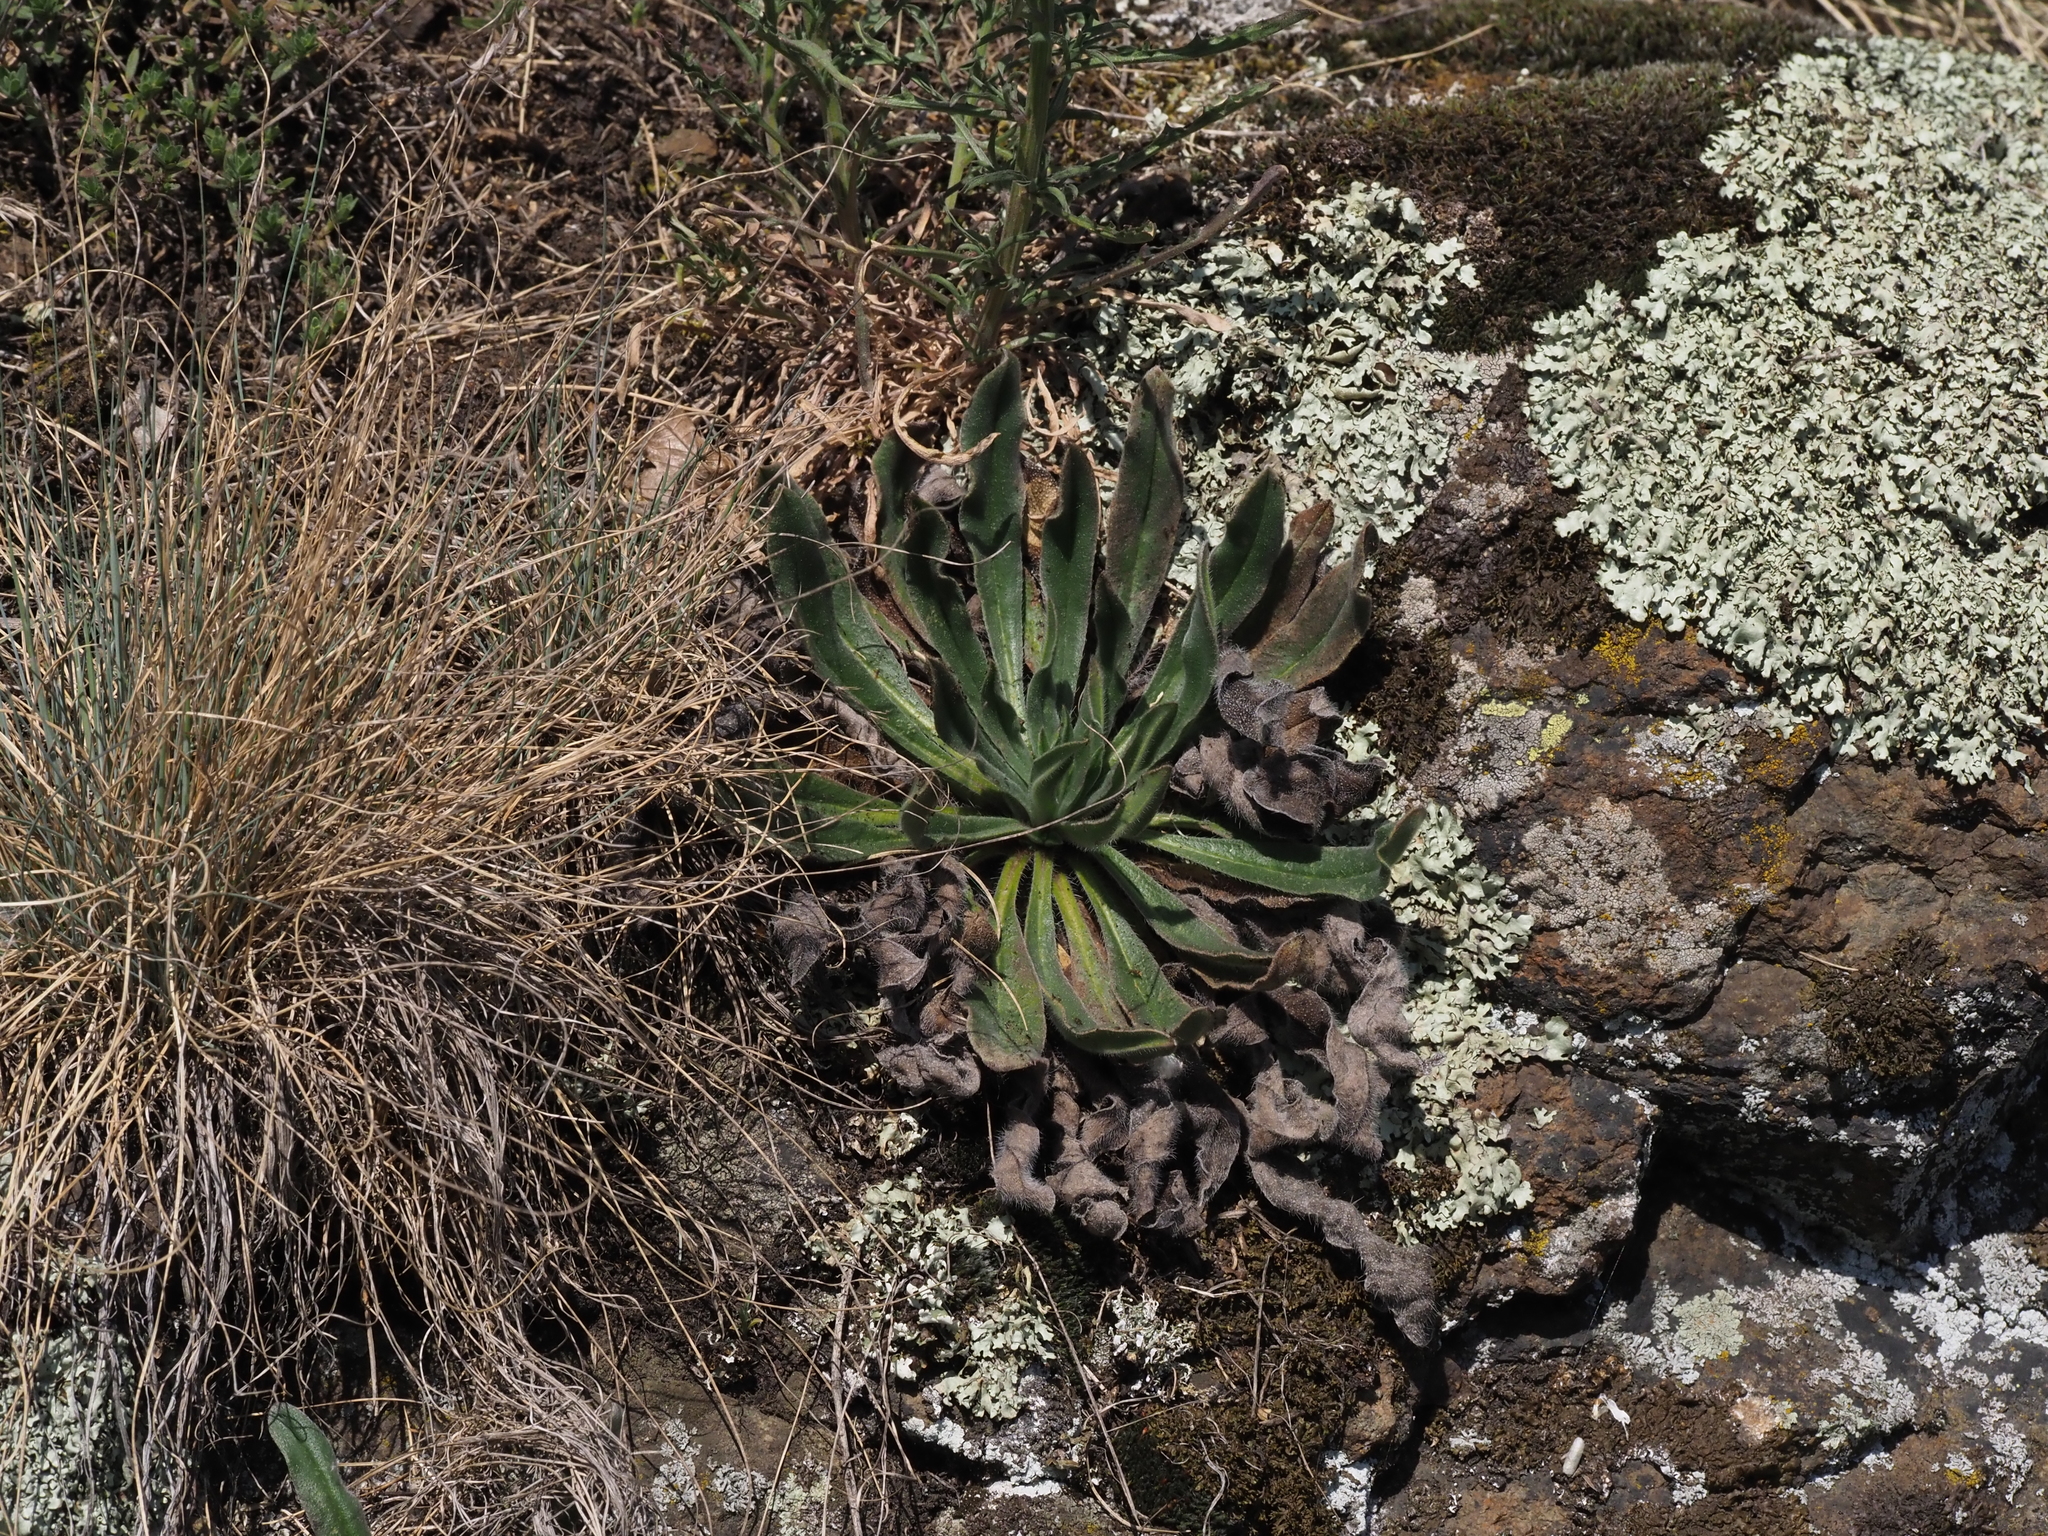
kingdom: Plantae
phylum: Tracheophyta
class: Magnoliopsida
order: Boraginales
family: Boraginaceae
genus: Echium
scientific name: Echium vulgare
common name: Common viper's bugloss
